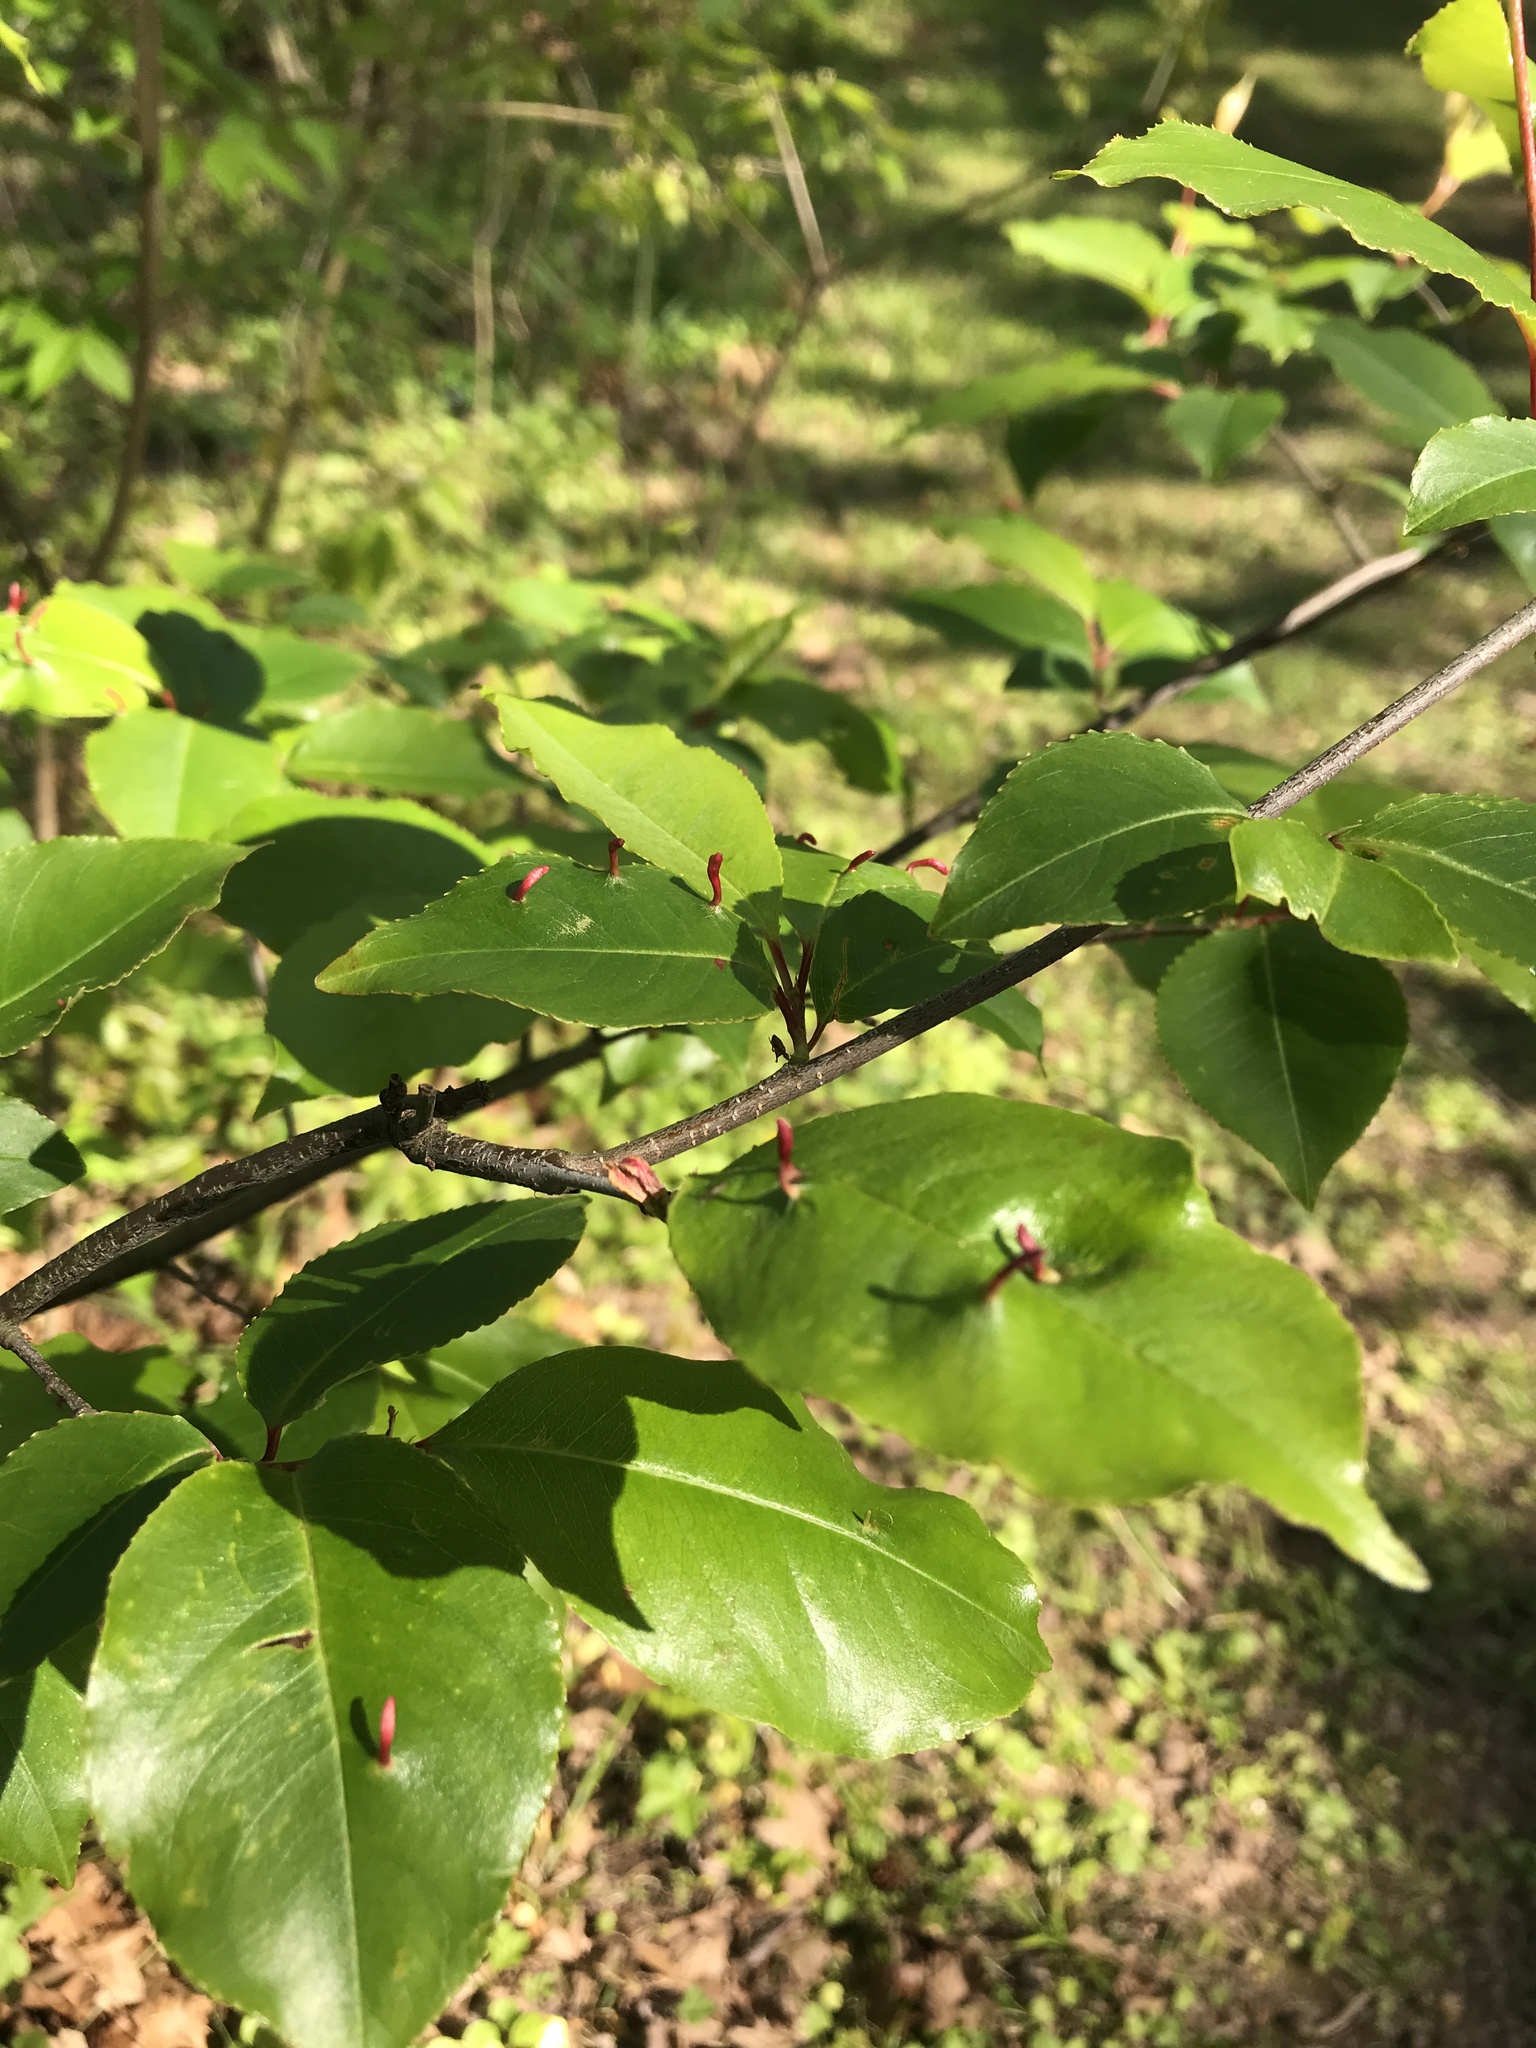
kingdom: Animalia
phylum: Arthropoda
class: Arachnida
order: Trombidiformes
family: Eriophyidae
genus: Eriophyes
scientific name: Eriophyes
